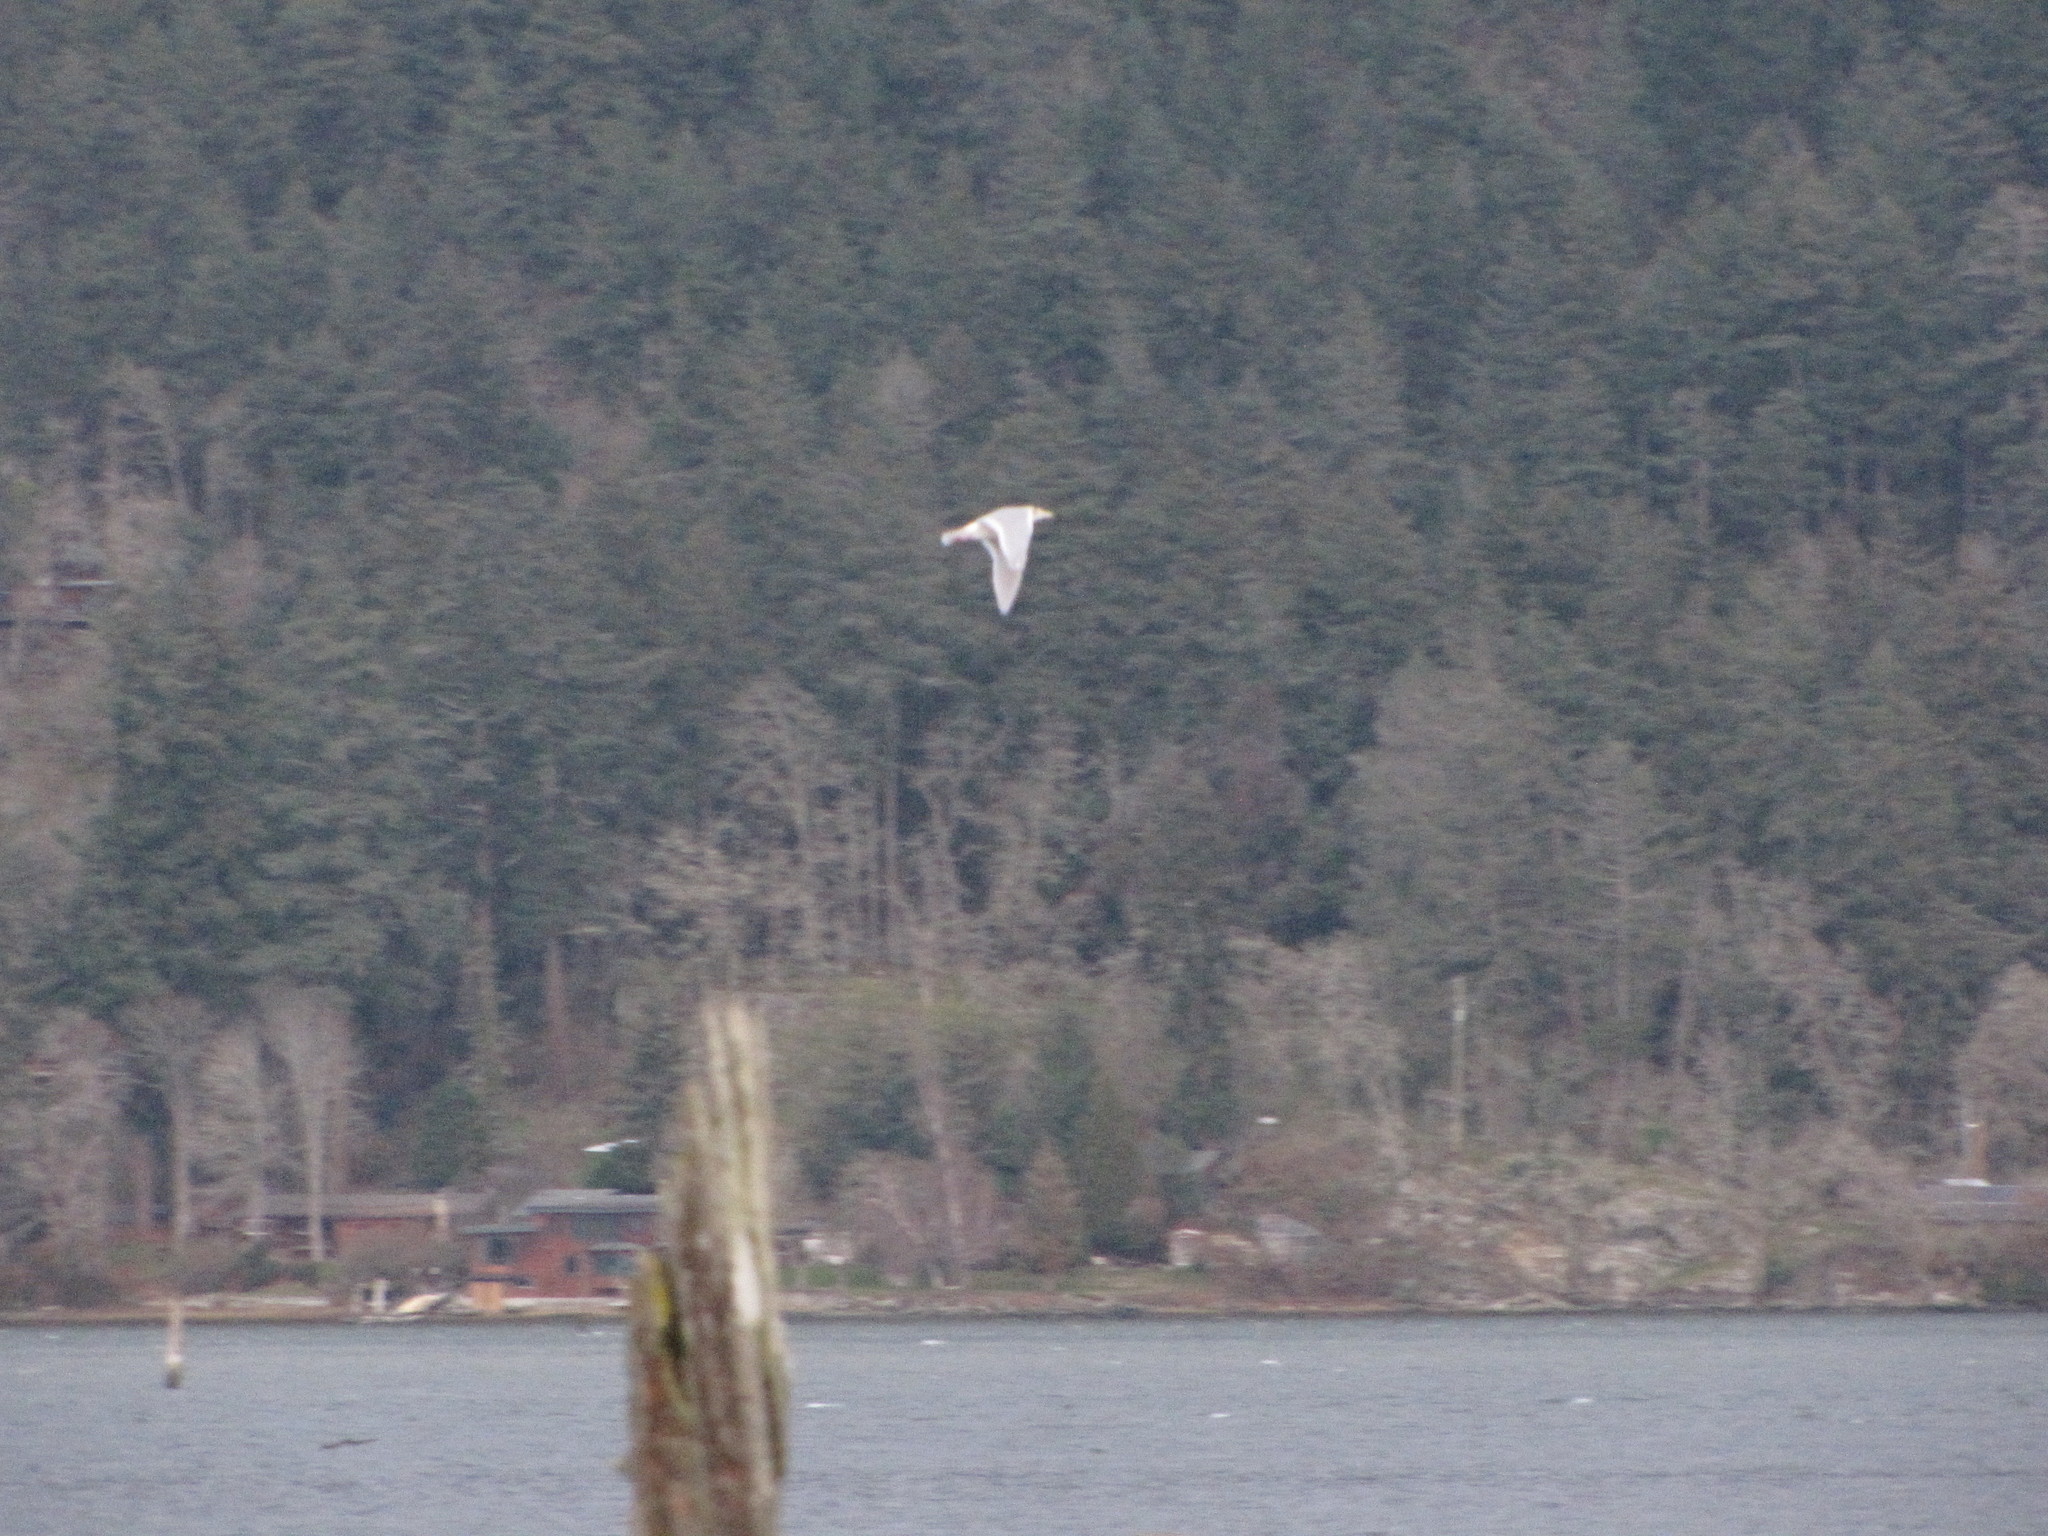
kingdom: Animalia
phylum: Chordata
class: Aves
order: Charadriiformes
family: Laridae
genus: Larus
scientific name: Larus glaucescens
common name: Glaucous-winged gull
